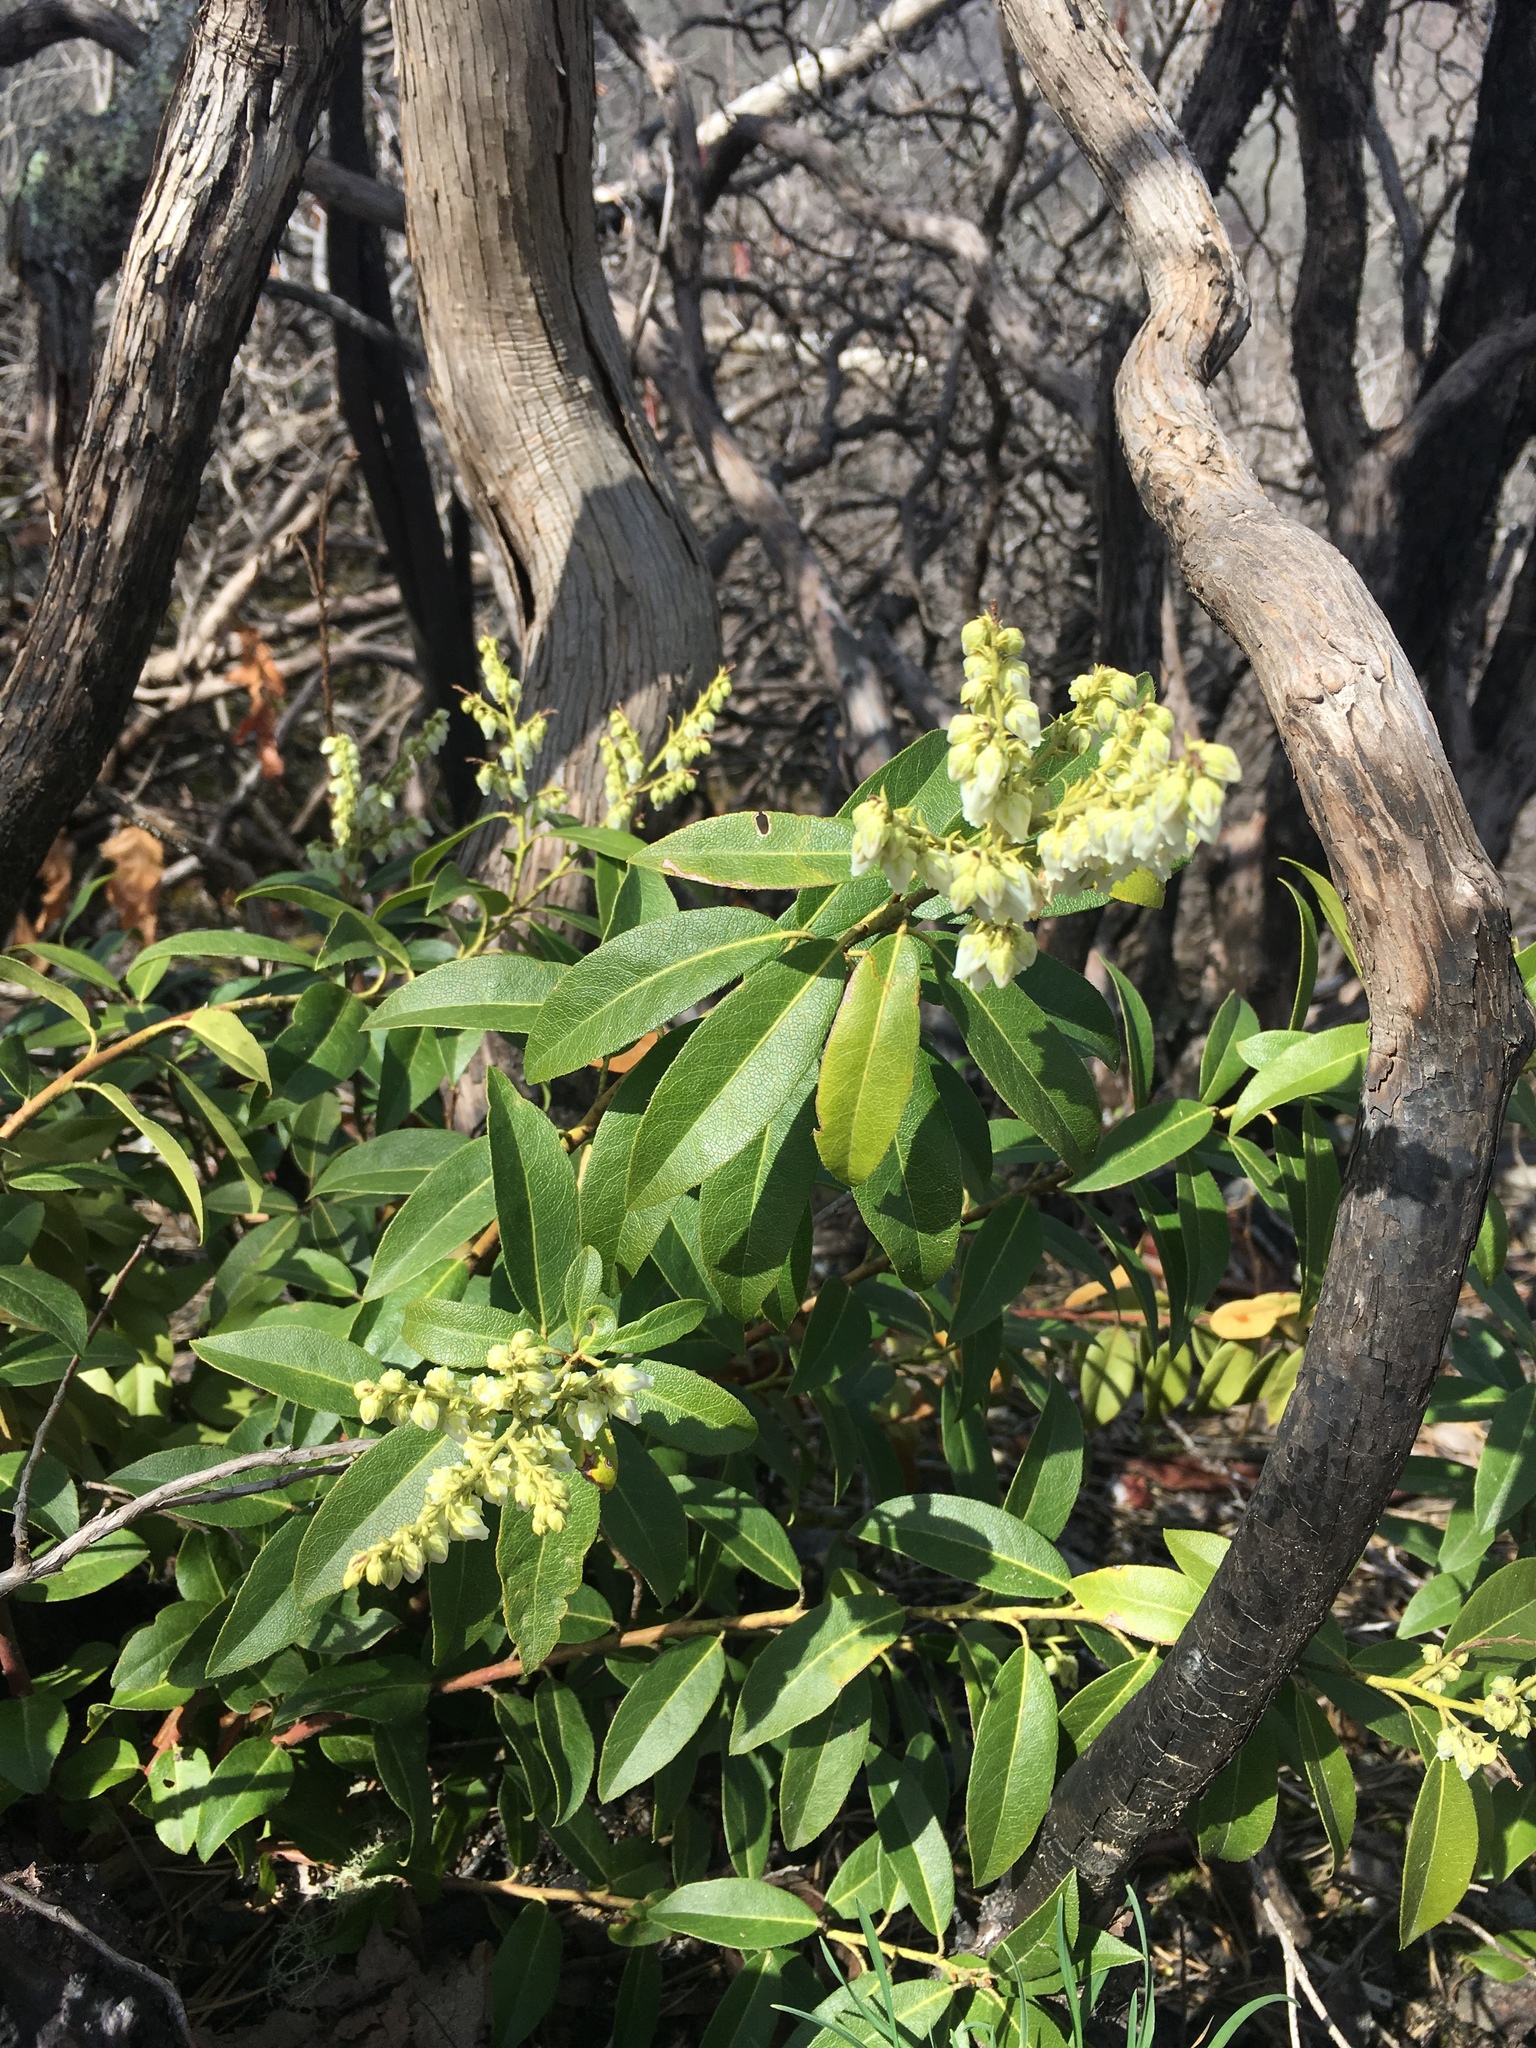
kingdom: Plantae
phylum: Tracheophyta
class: Magnoliopsida
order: Ericales
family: Ericaceae
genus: Pieris
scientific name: Pieris floribunda
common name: Flutterbush
